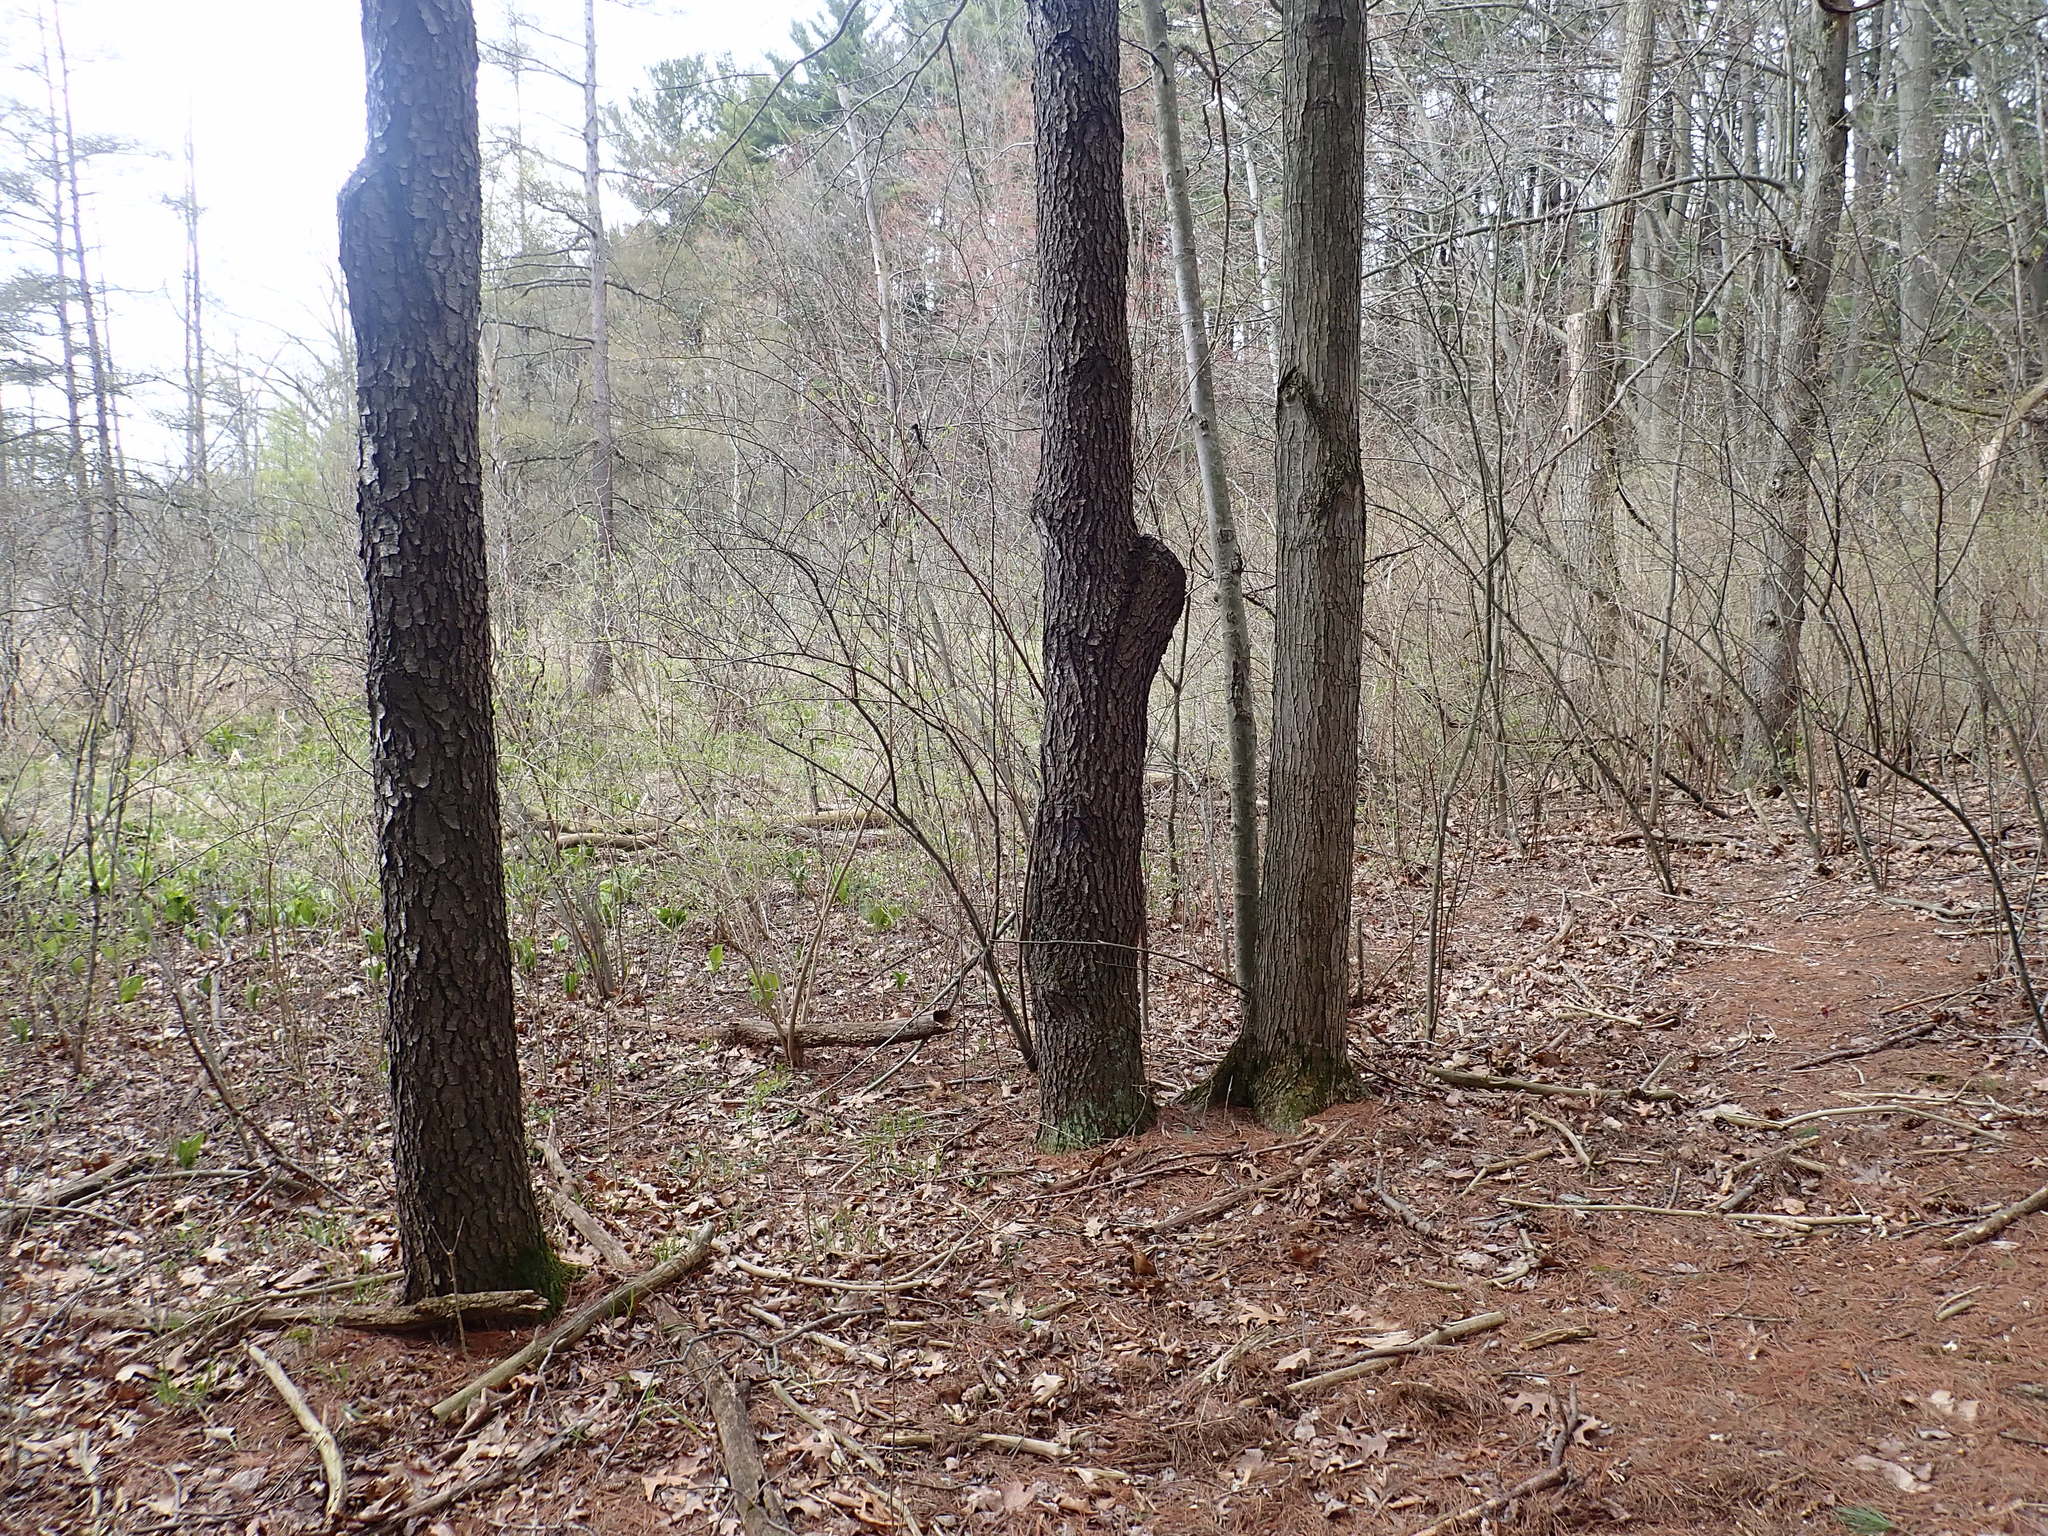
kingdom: Plantae
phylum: Tracheophyta
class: Magnoliopsida
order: Rosales
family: Rosaceae
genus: Prunus
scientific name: Prunus serotina
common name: Black cherry
